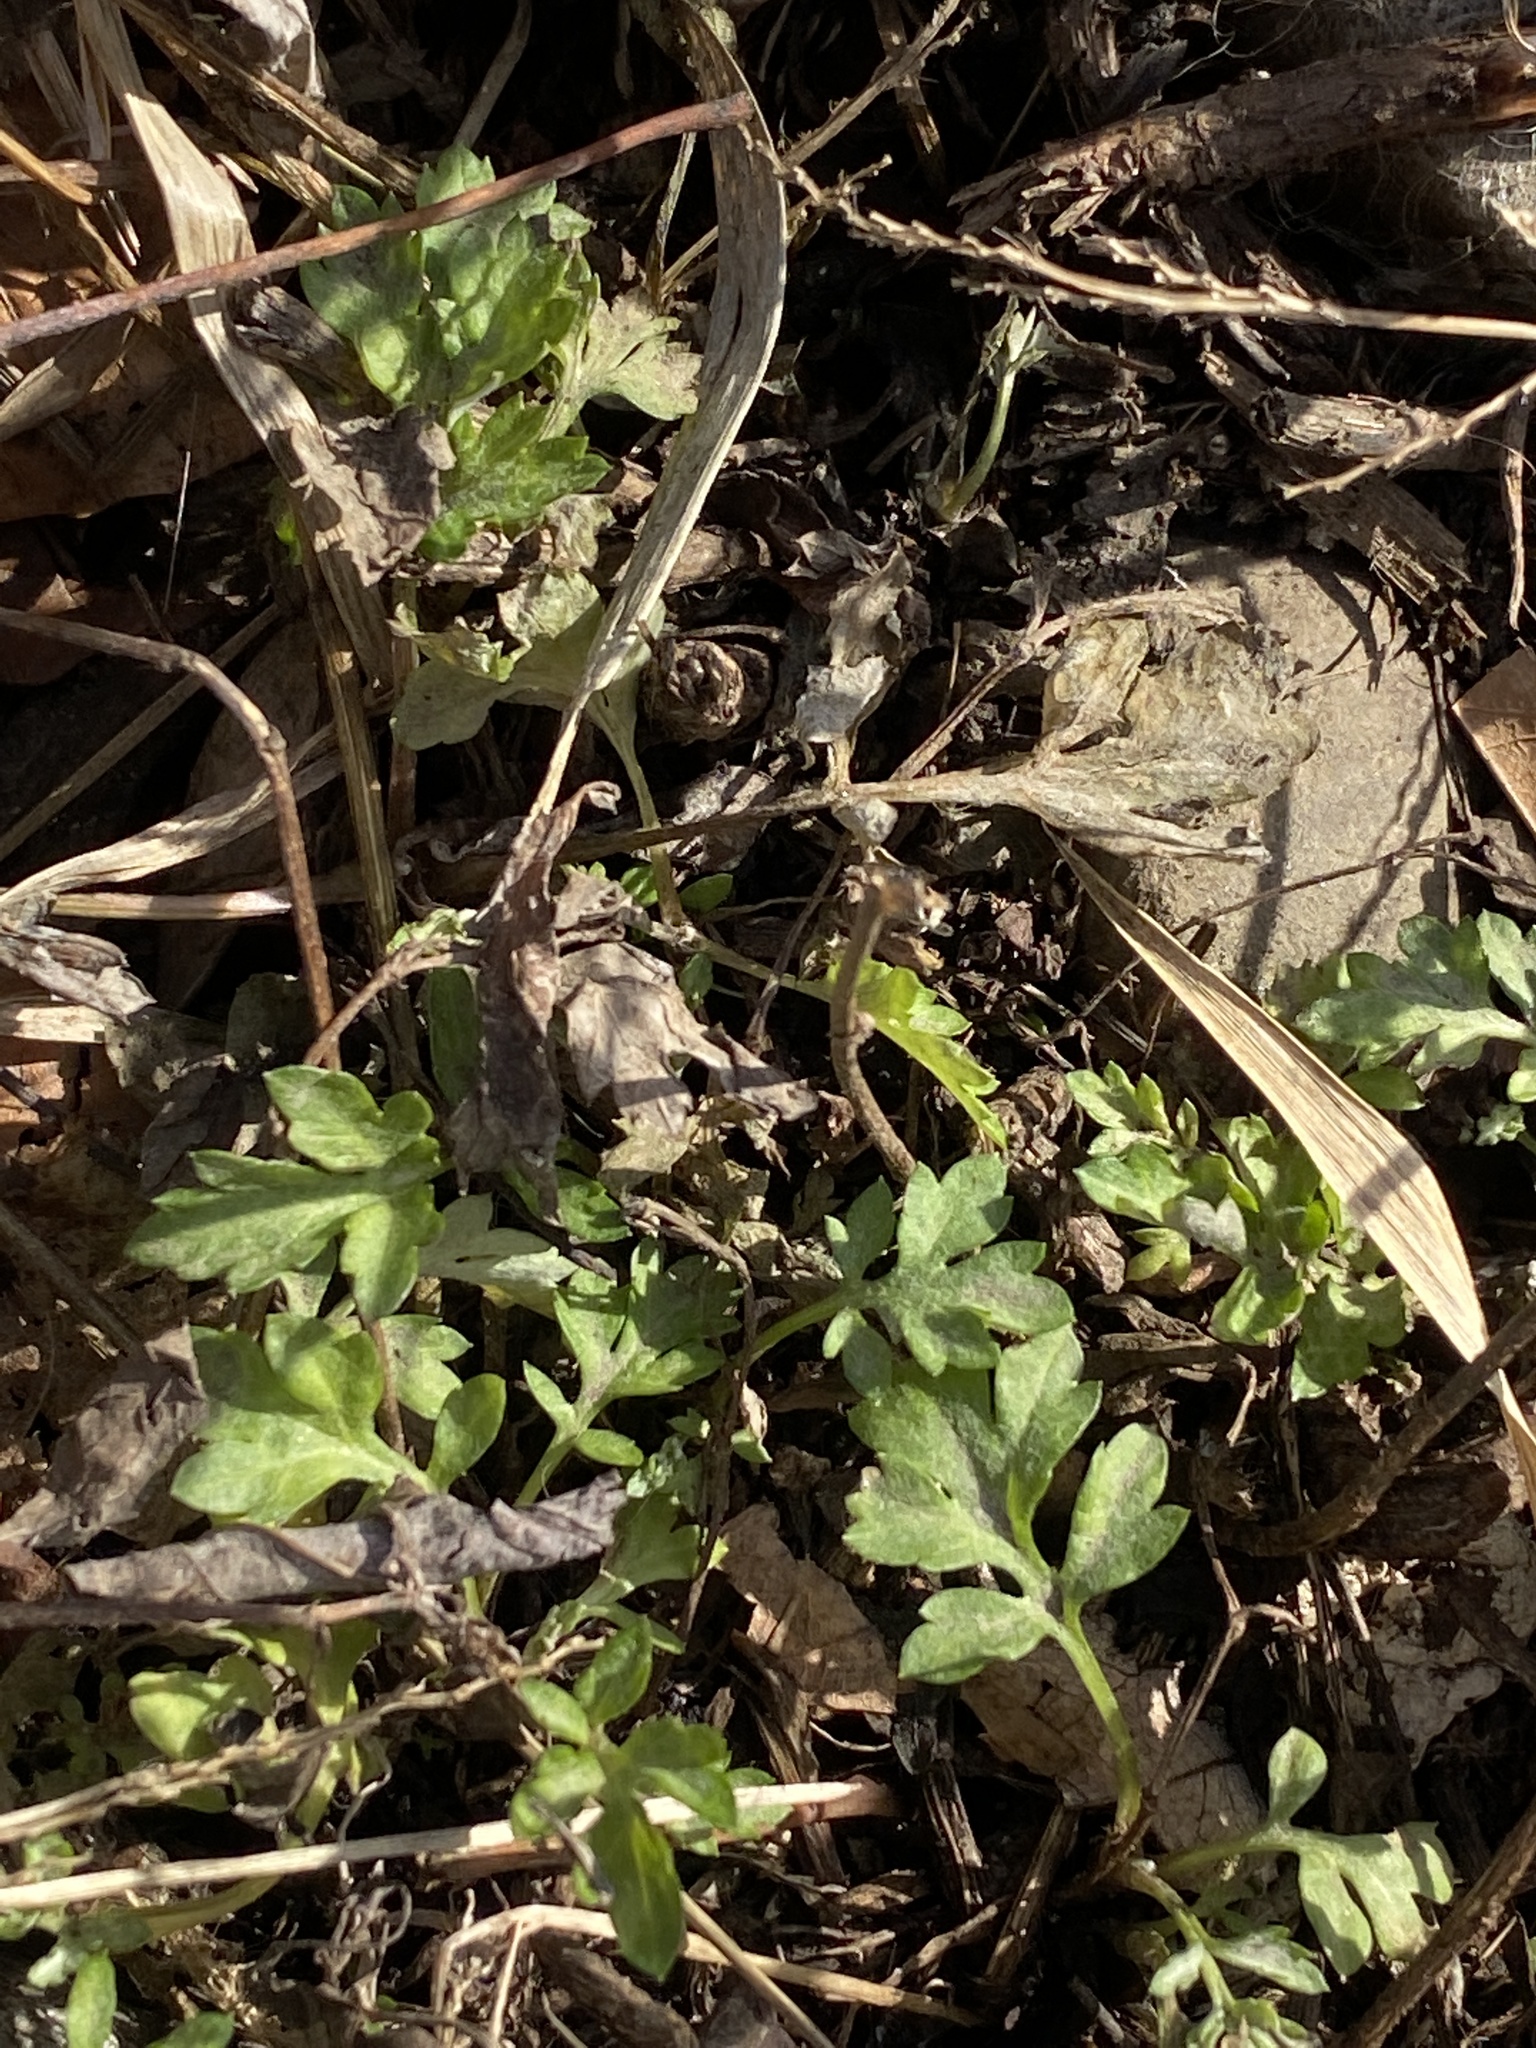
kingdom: Plantae
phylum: Tracheophyta
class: Magnoliopsida
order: Asterales
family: Asteraceae
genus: Artemisia
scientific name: Artemisia vulgaris
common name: Mugwort
